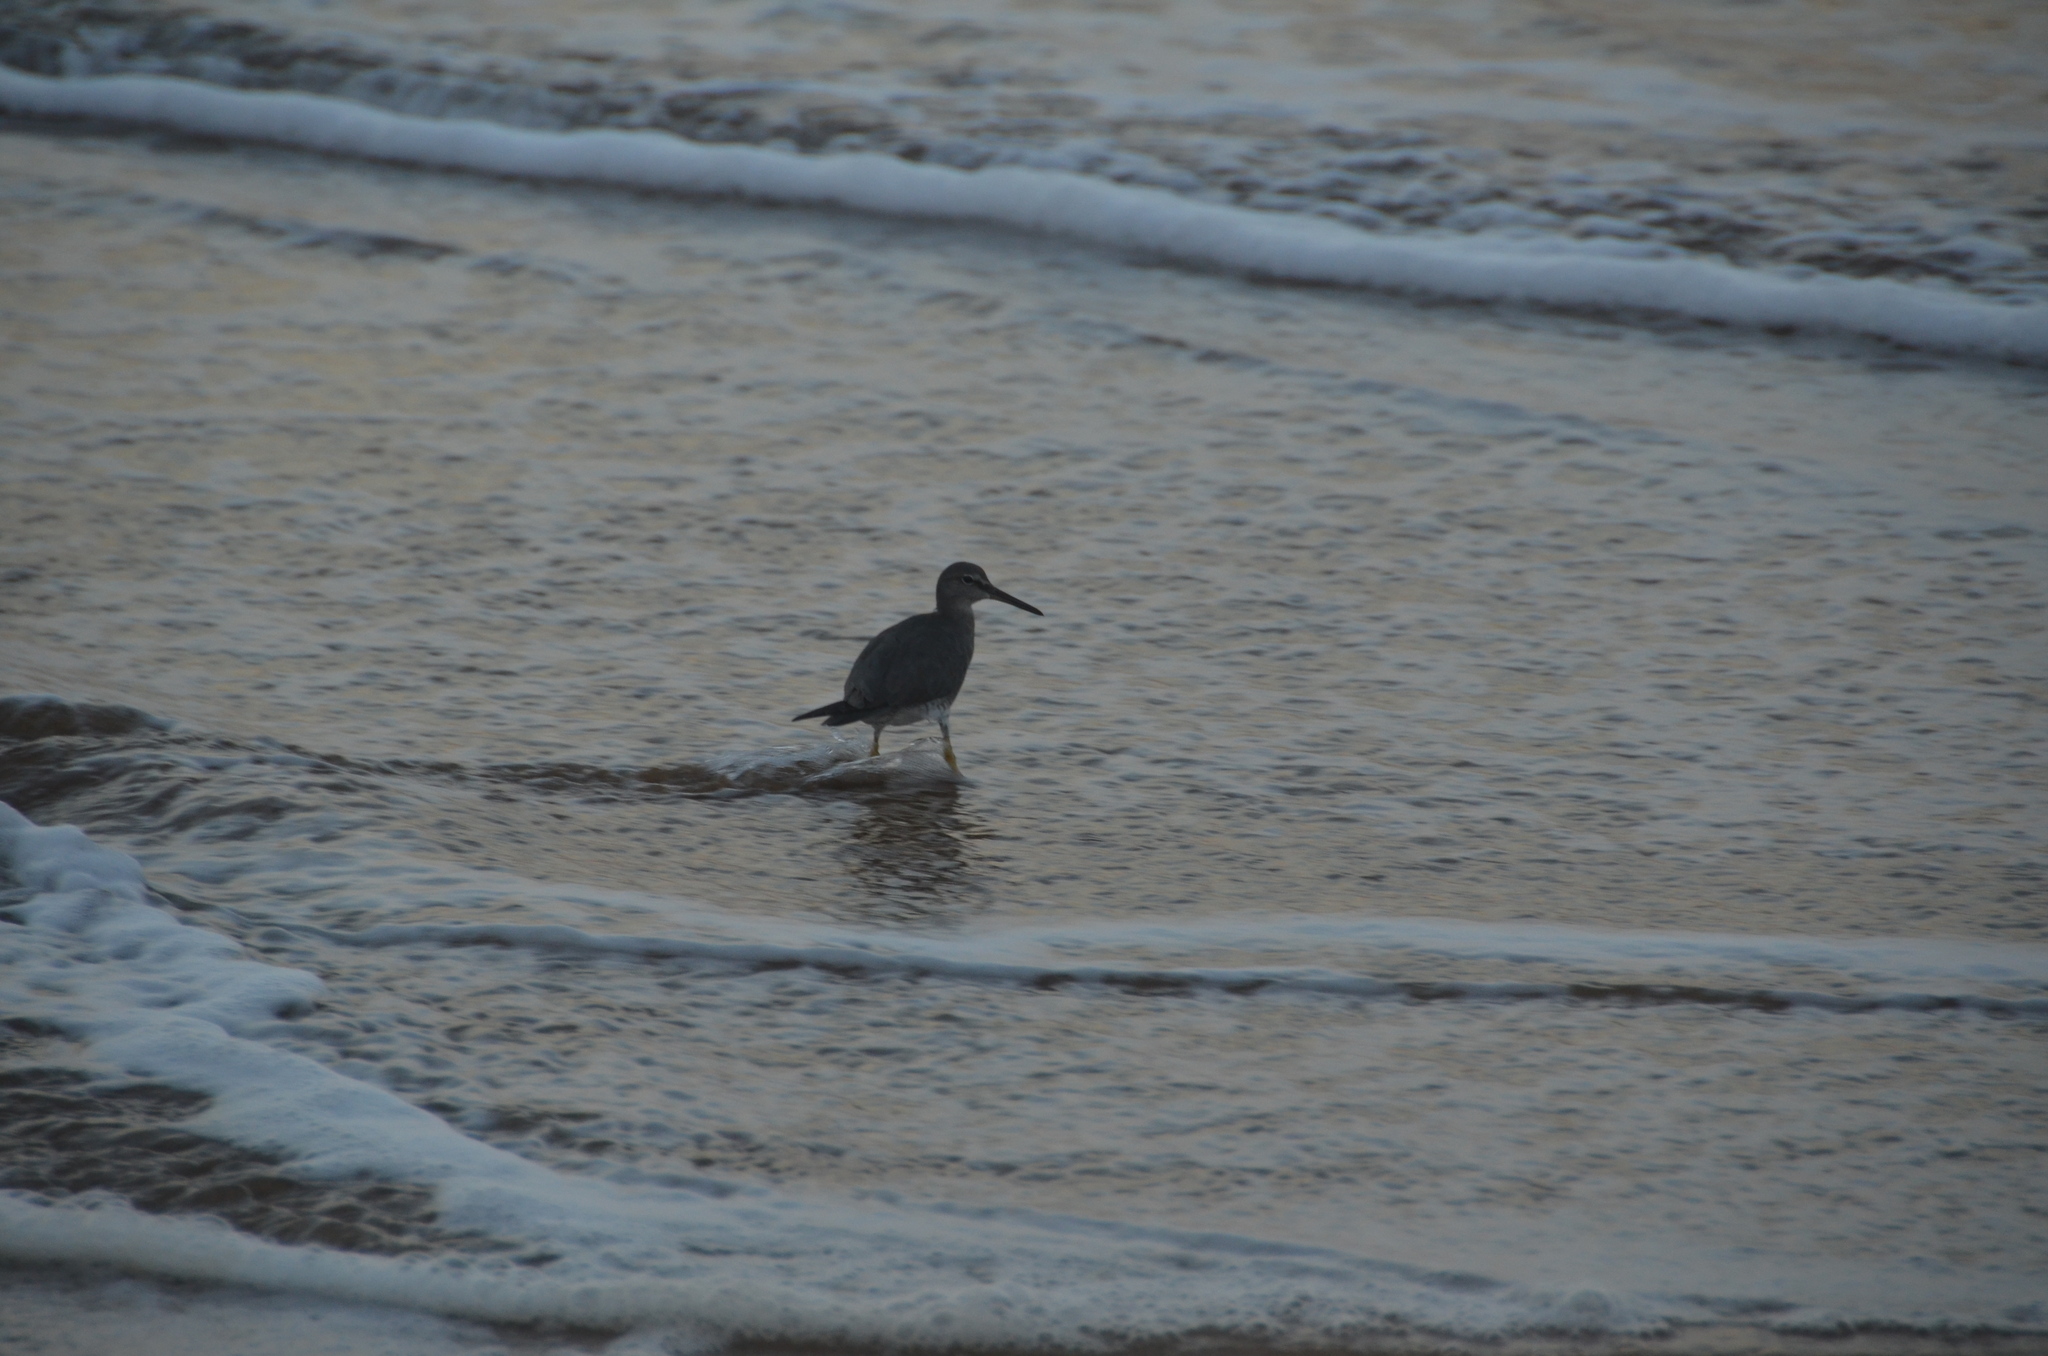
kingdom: Animalia
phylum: Chordata
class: Aves
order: Charadriiformes
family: Scolopacidae
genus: Tringa
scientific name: Tringa incana
